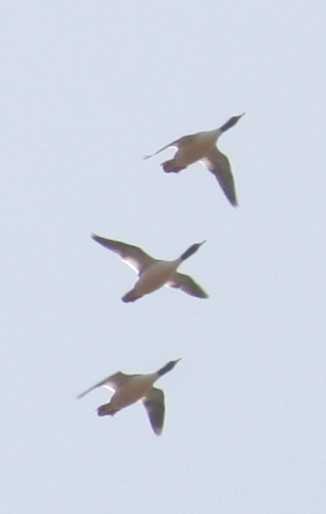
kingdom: Animalia
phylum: Chordata
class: Aves
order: Anseriformes
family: Anatidae
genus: Mergus
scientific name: Mergus merganser
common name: Common merganser
